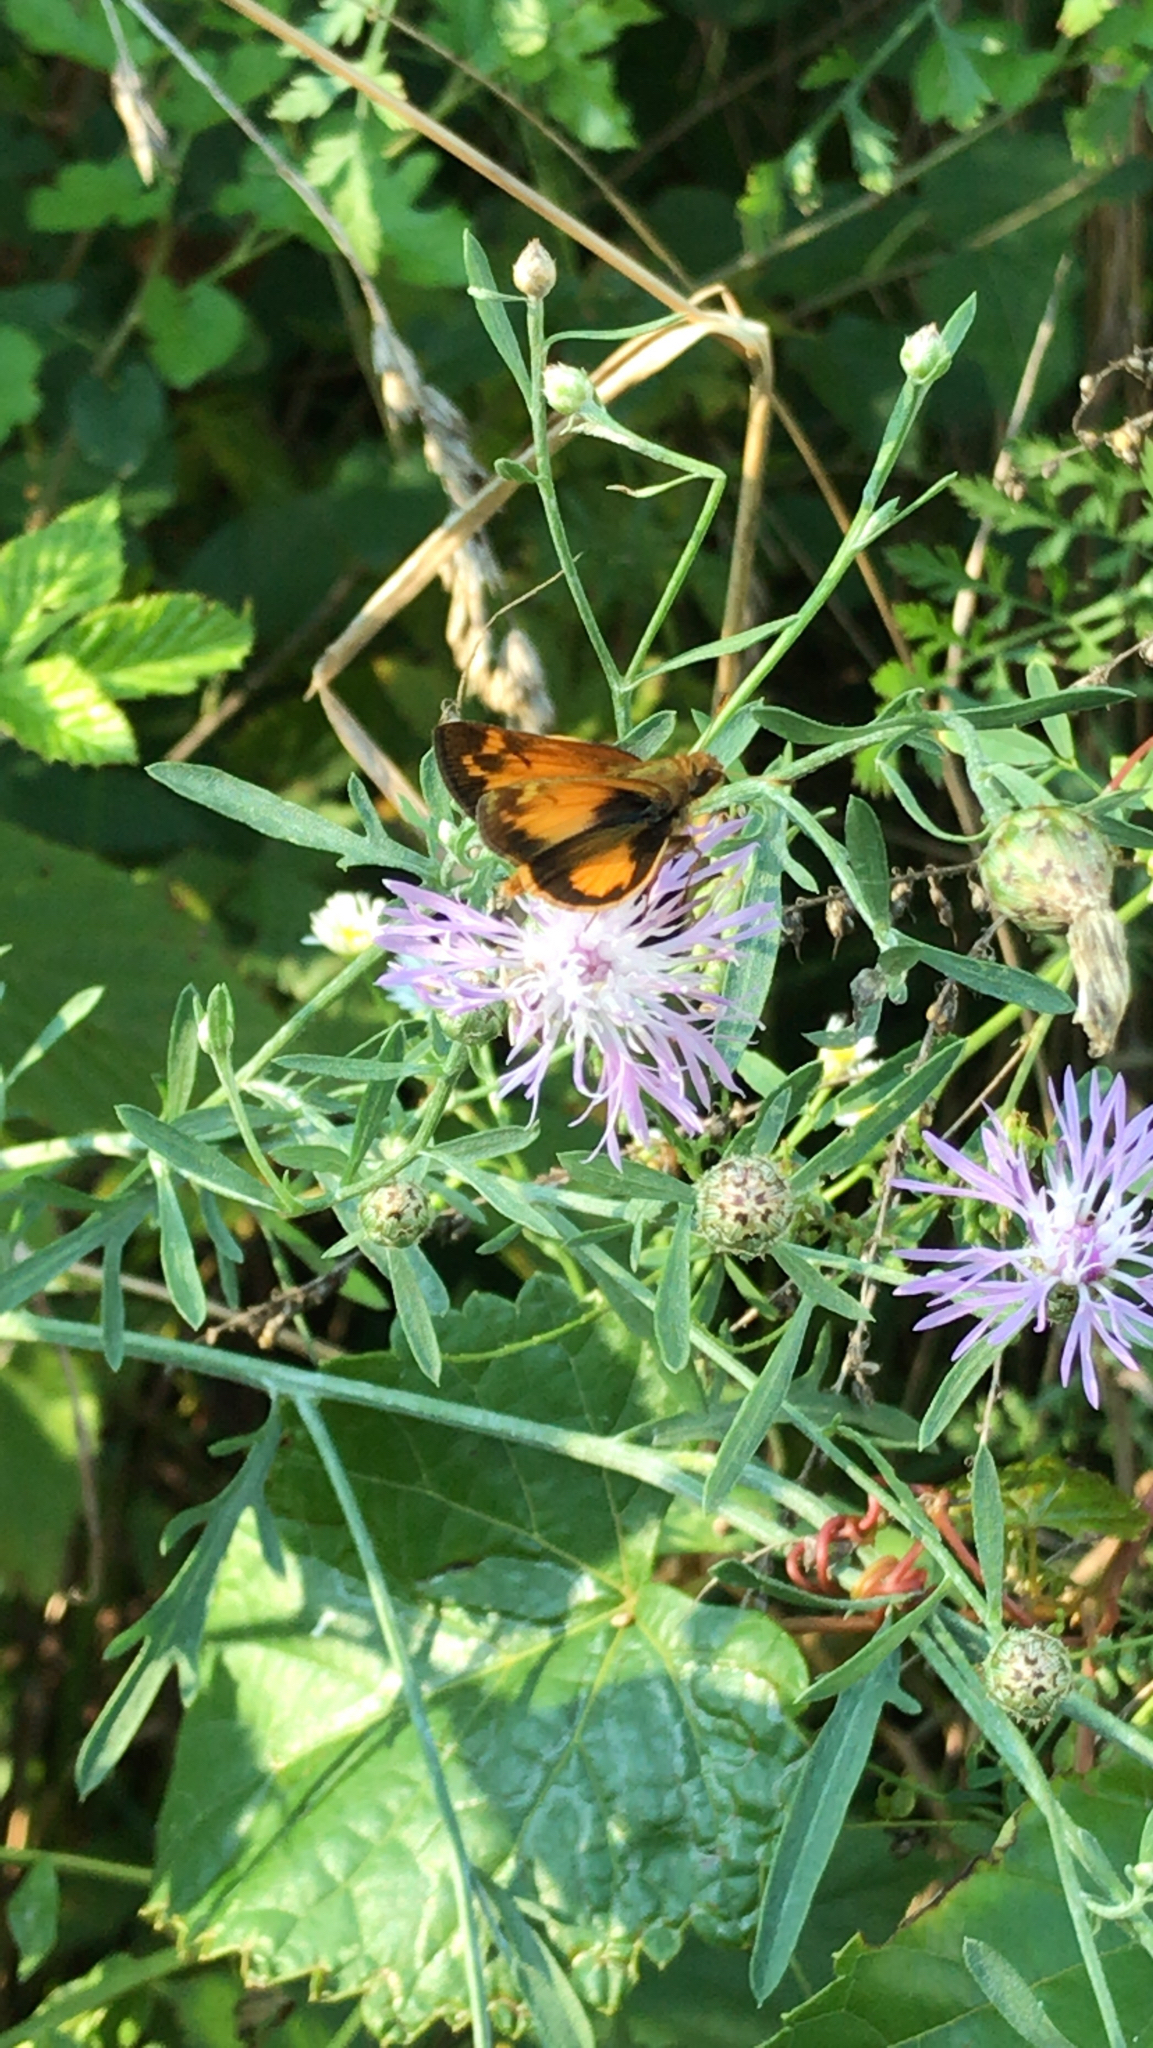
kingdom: Animalia
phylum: Arthropoda
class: Insecta
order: Lepidoptera
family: Hesperiidae
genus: Lon
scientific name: Lon zabulon
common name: Zabulon skipper
